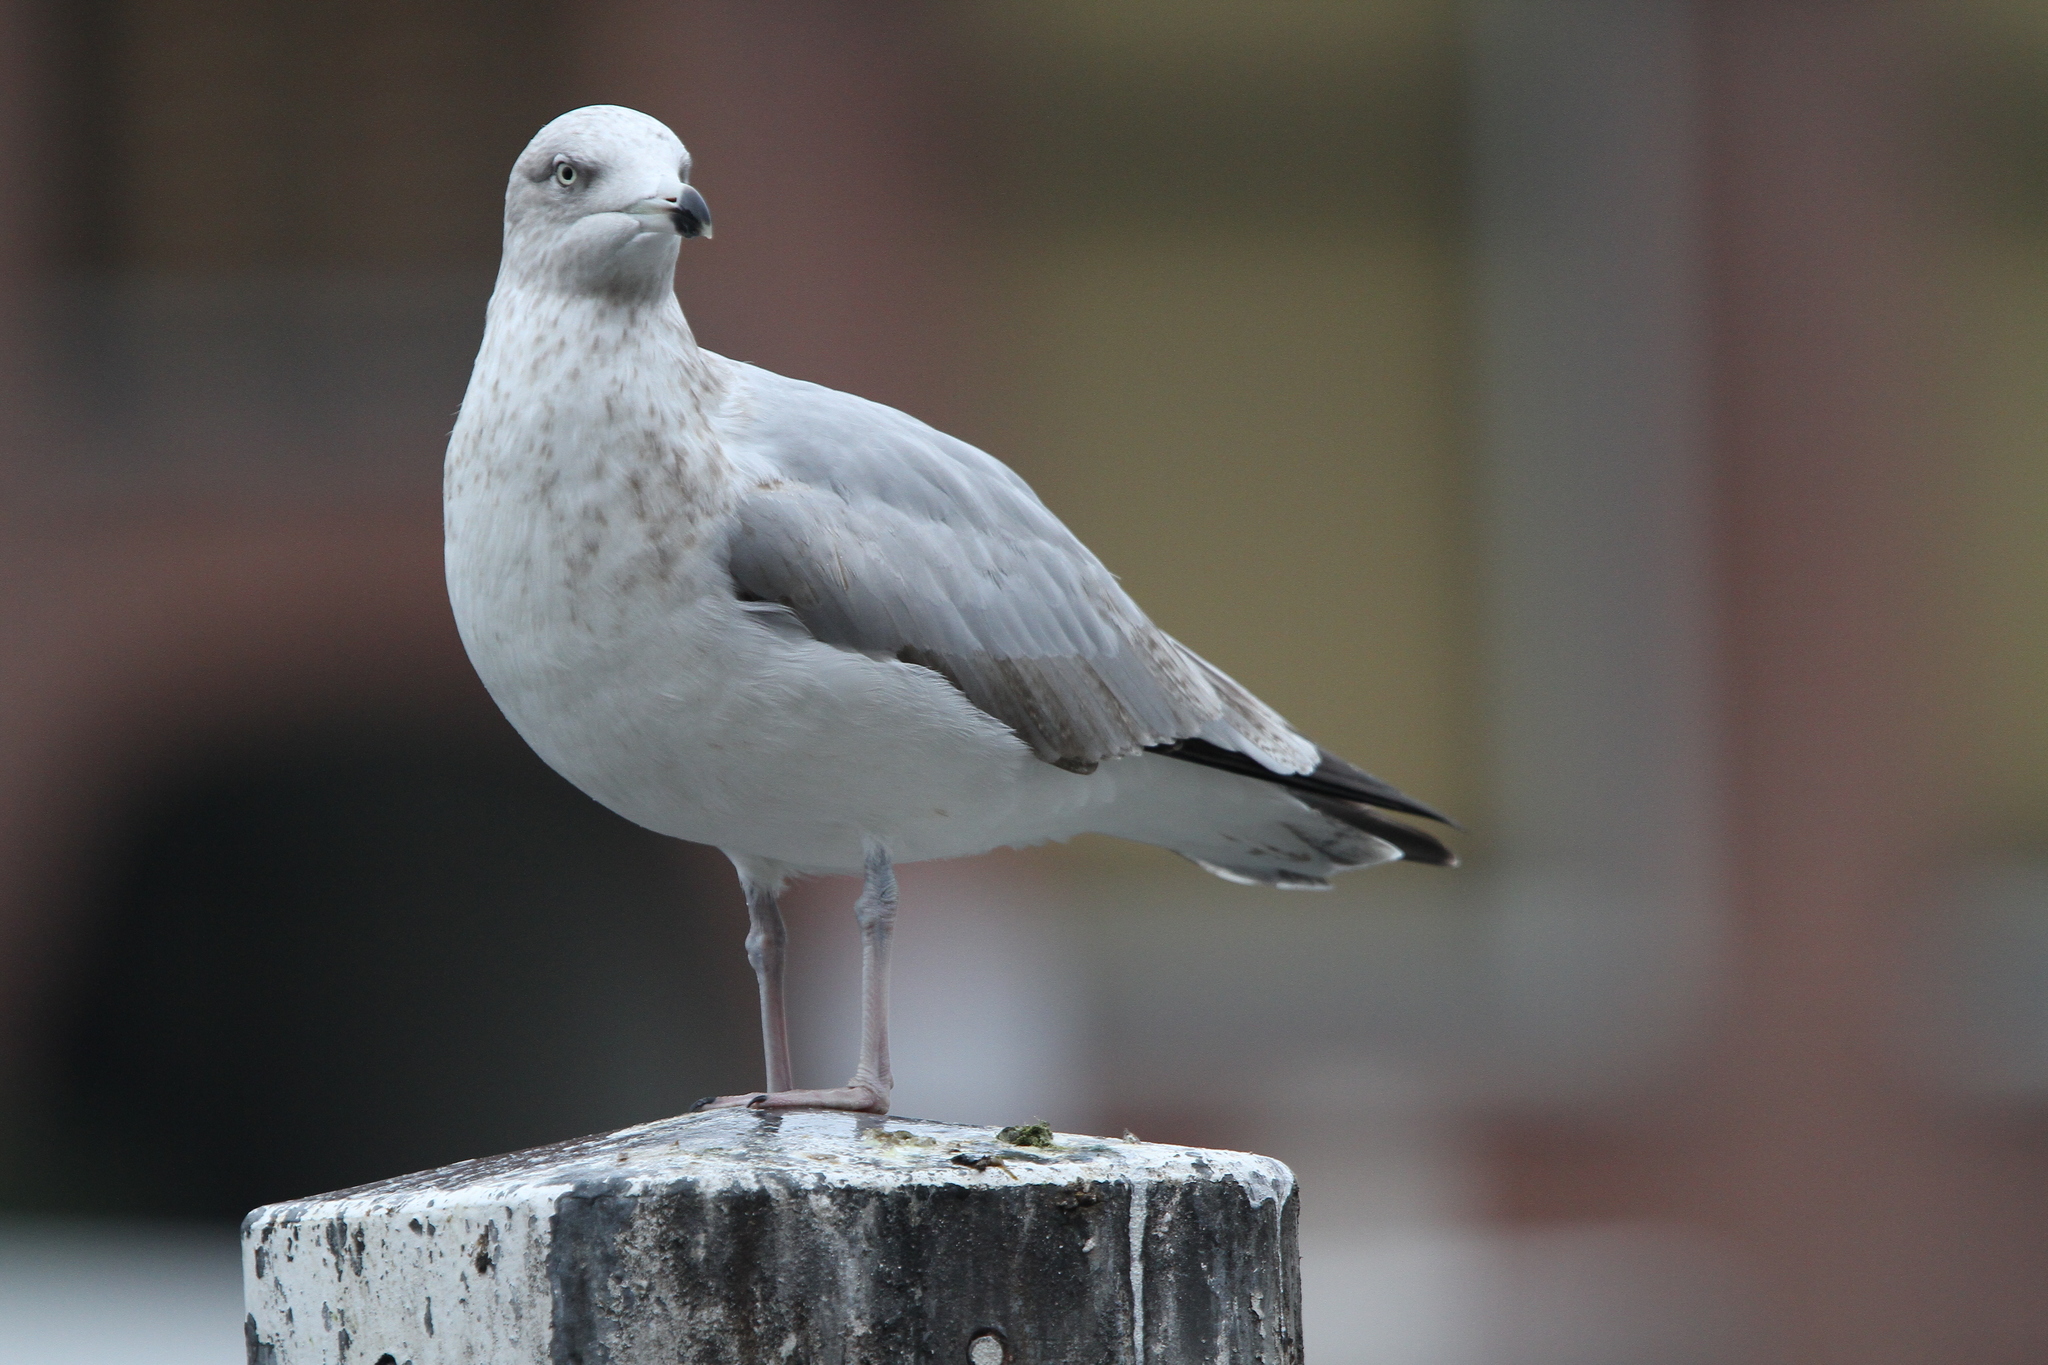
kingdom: Animalia
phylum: Chordata
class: Aves
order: Charadriiformes
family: Laridae
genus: Larus
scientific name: Larus argentatus
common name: Herring gull
